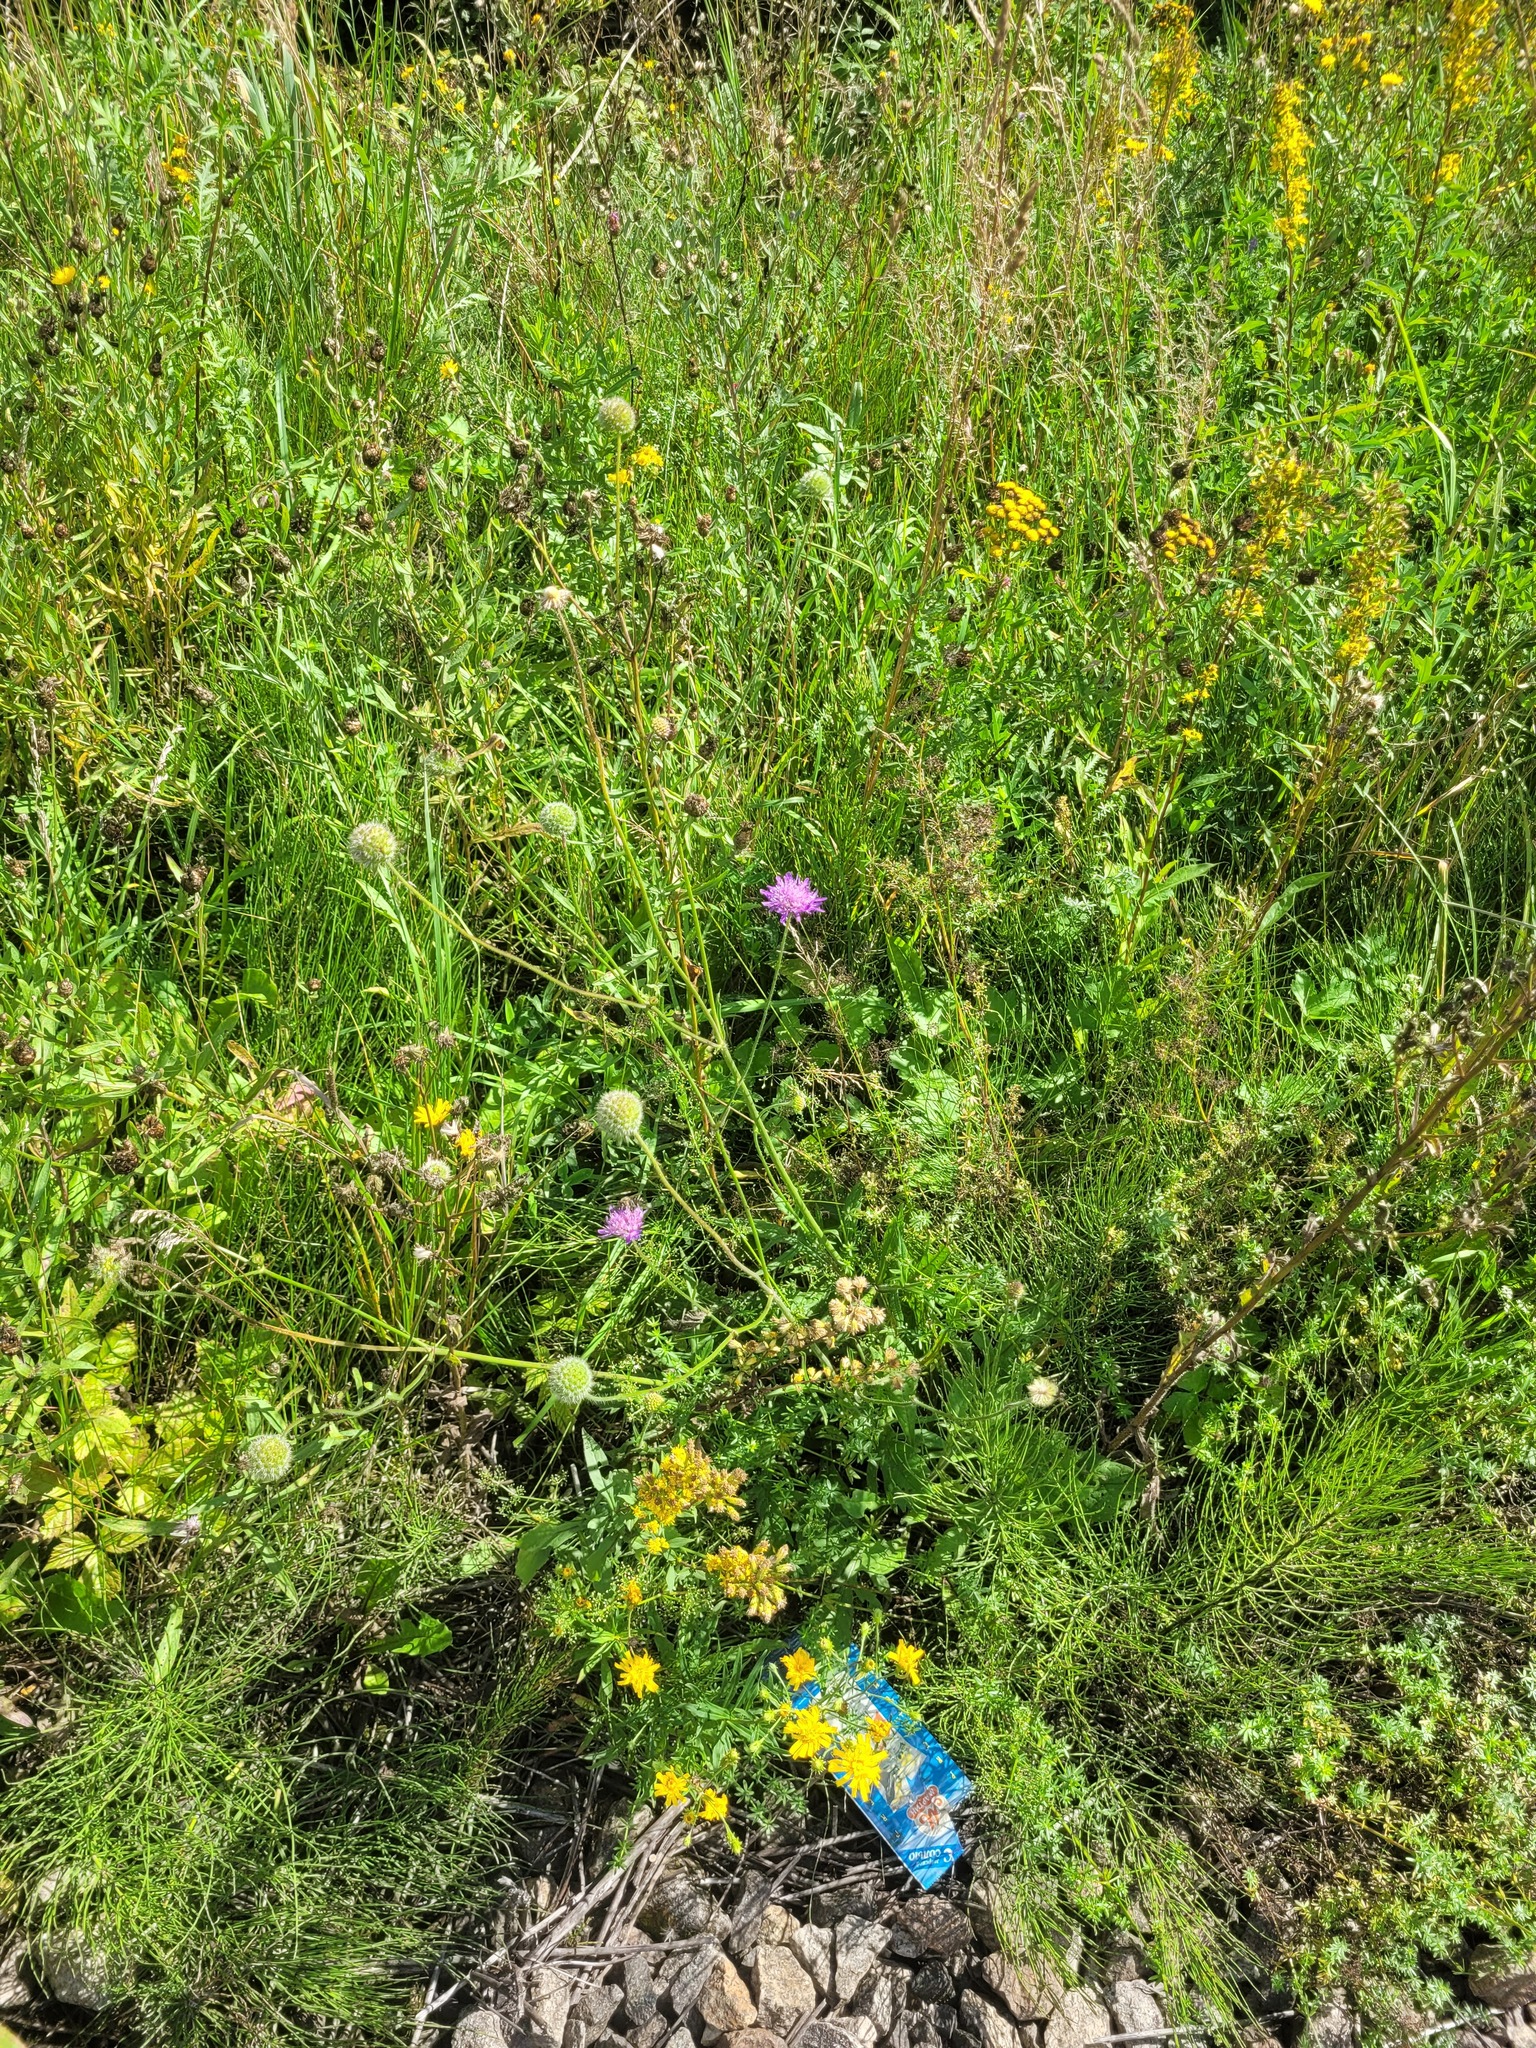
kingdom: Plantae
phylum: Tracheophyta
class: Magnoliopsida
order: Dipsacales
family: Caprifoliaceae
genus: Knautia
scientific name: Knautia arvensis
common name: Field scabiosa
